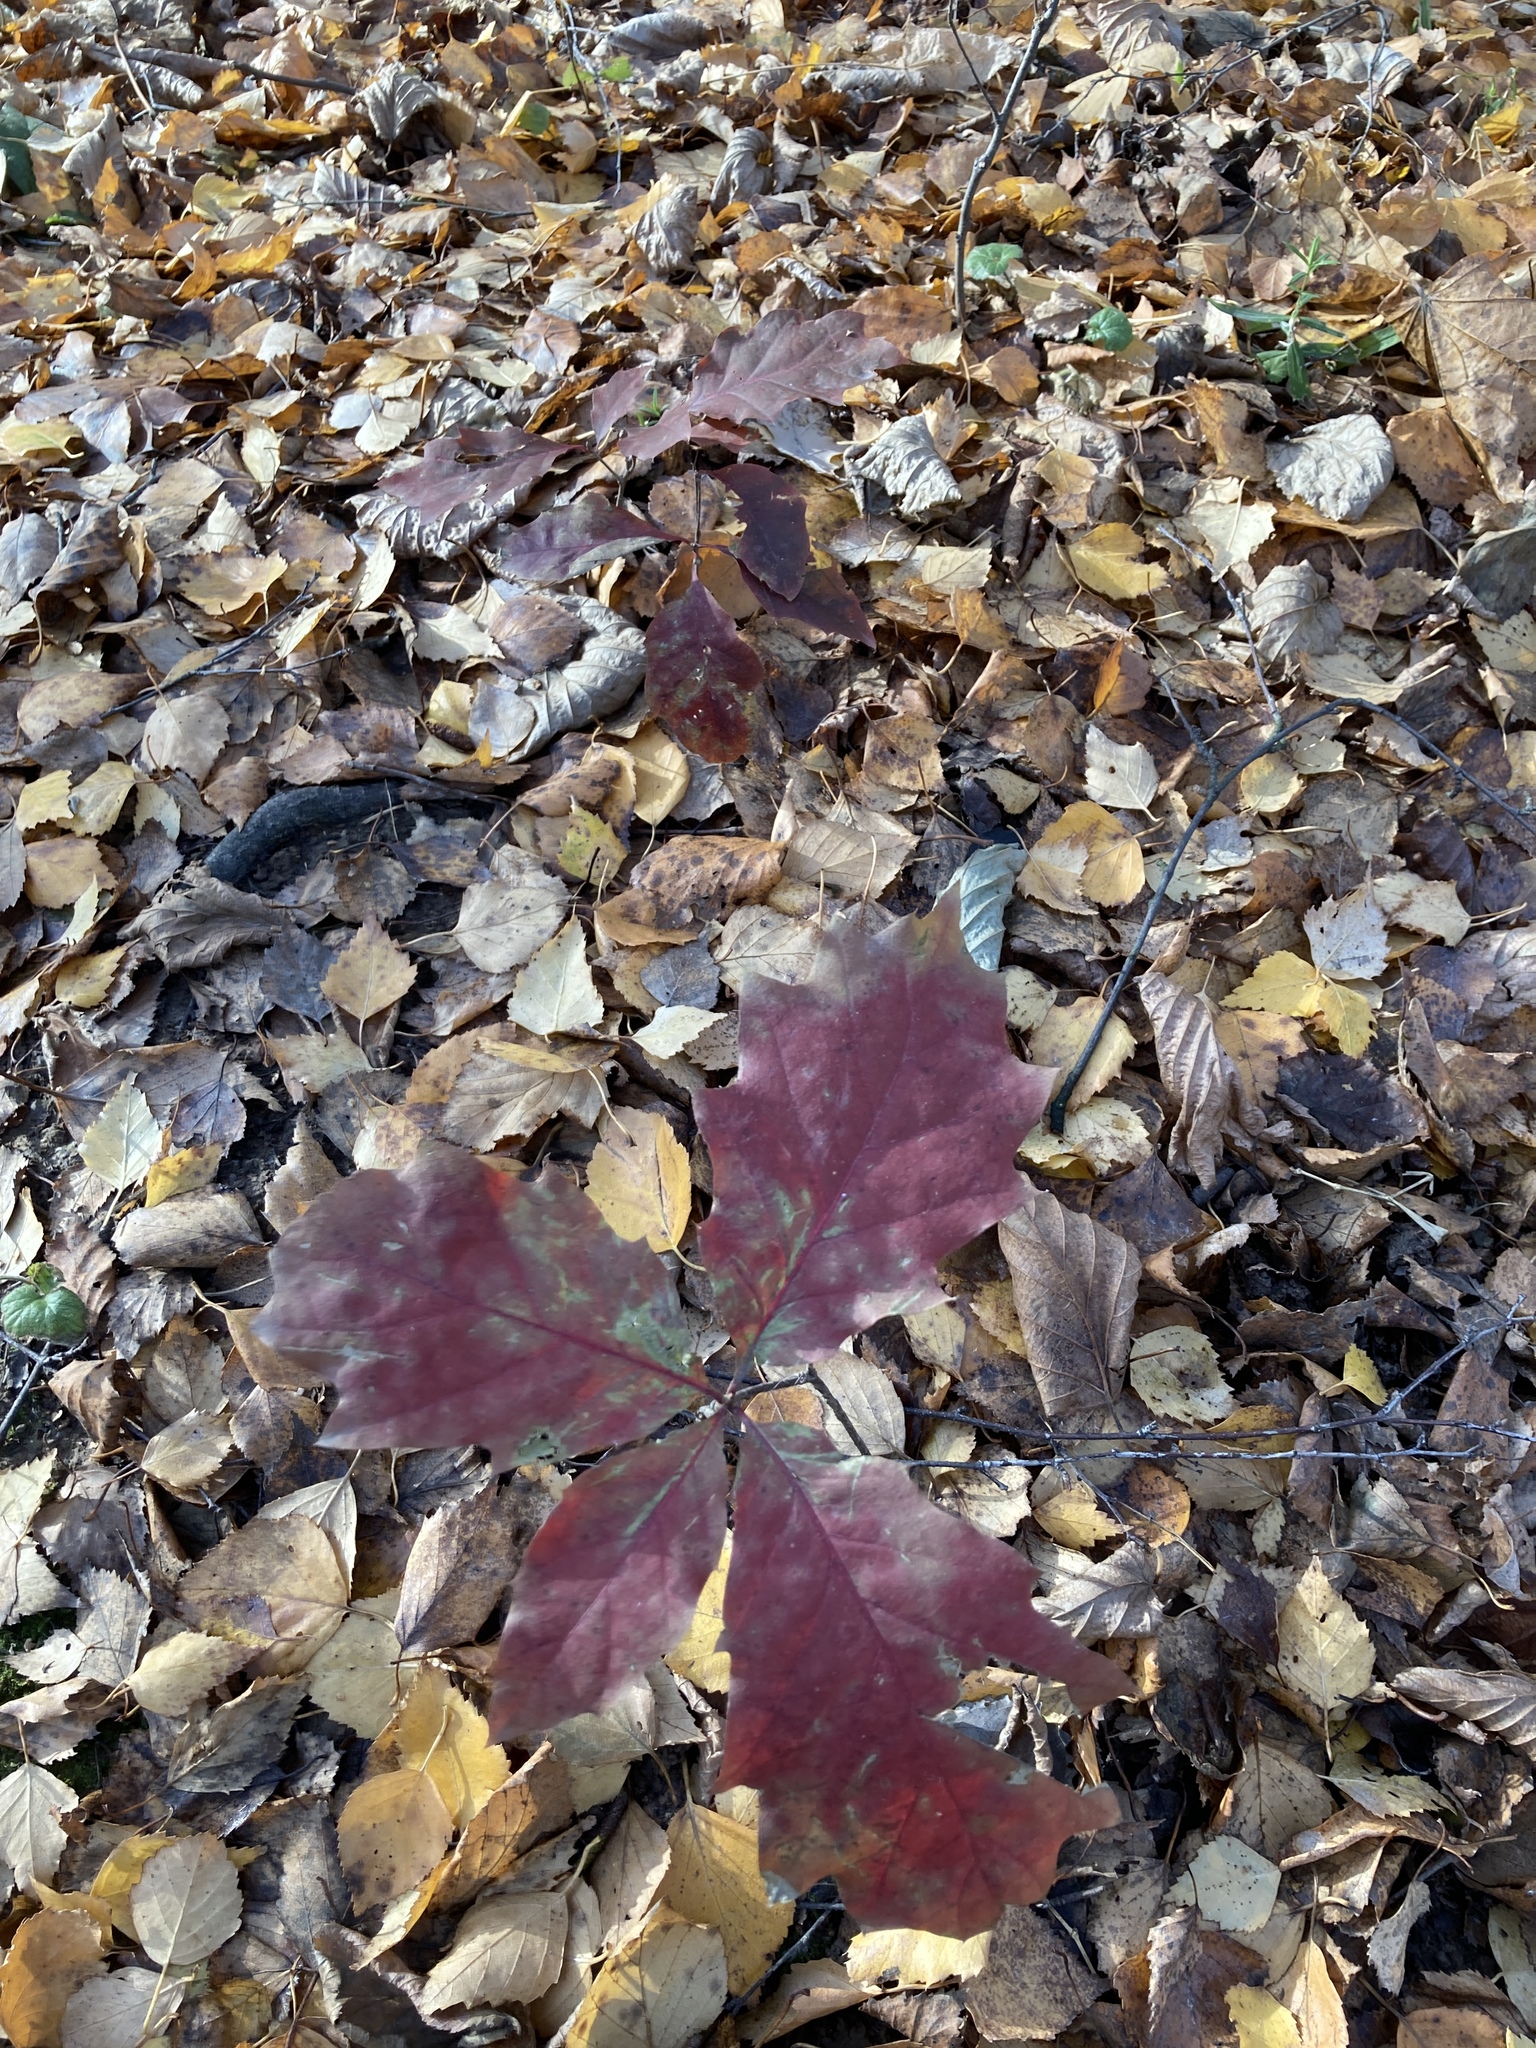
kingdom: Plantae
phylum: Tracheophyta
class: Magnoliopsida
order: Fagales
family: Fagaceae
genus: Quercus
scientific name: Quercus rubra
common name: Red oak
